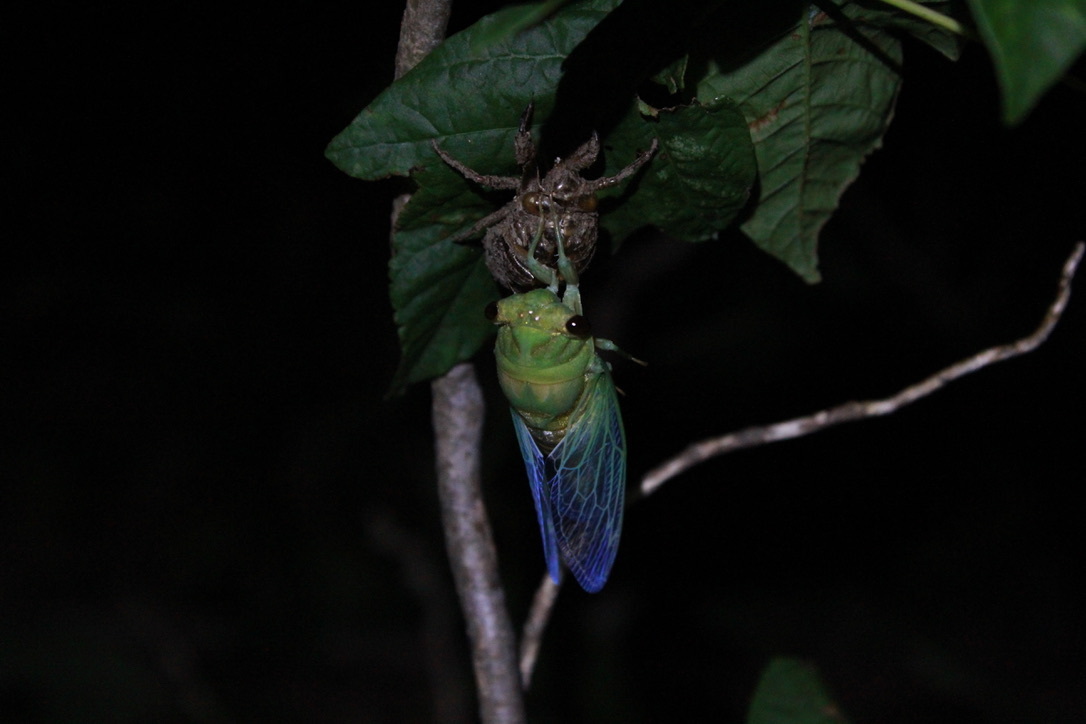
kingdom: Animalia
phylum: Arthropoda
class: Insecta
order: Hemiptera
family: Cicadidae
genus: Neotibicen
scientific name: Neotibicen superbus
